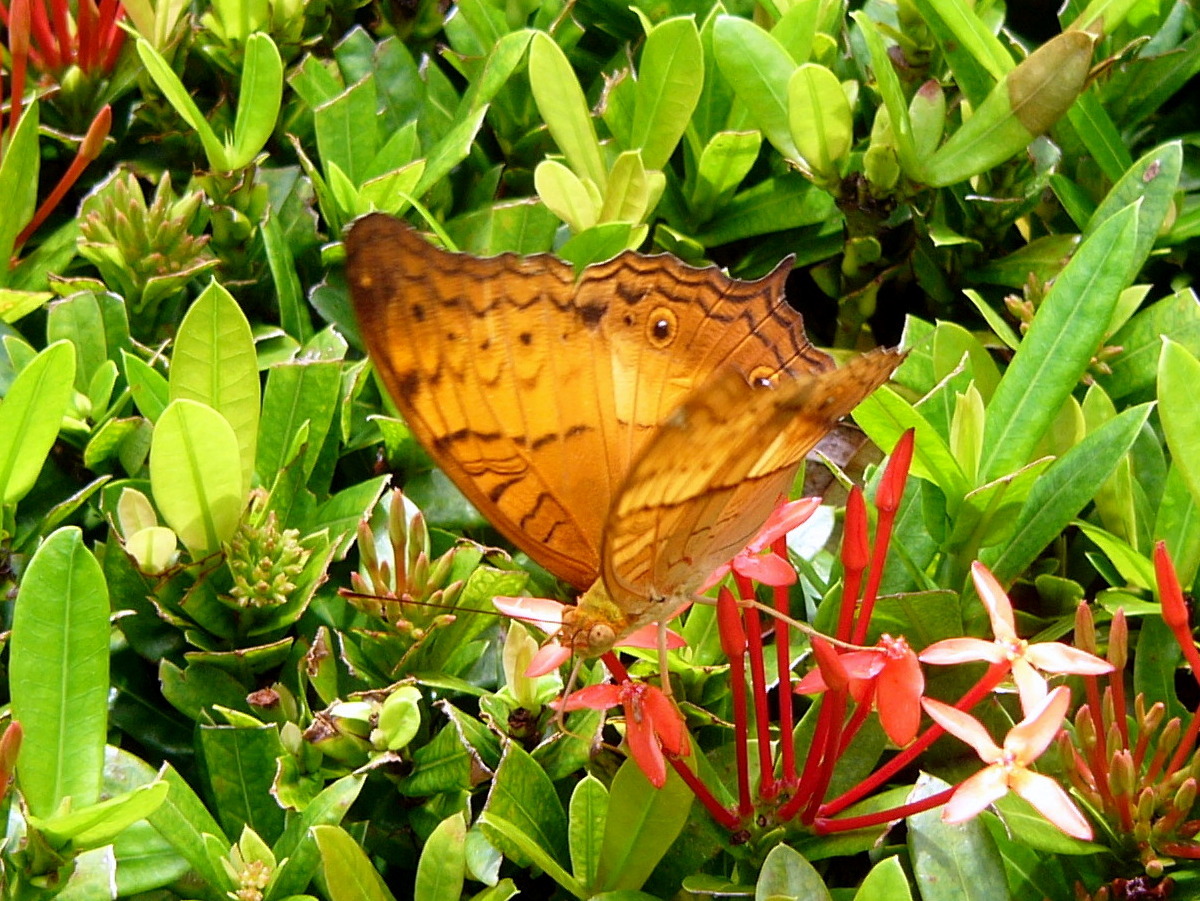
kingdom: Animalia
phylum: Arthropoda
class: Insecta
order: Lepidoptera
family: Nymphalidae
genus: Vindula
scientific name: Vindula deione
